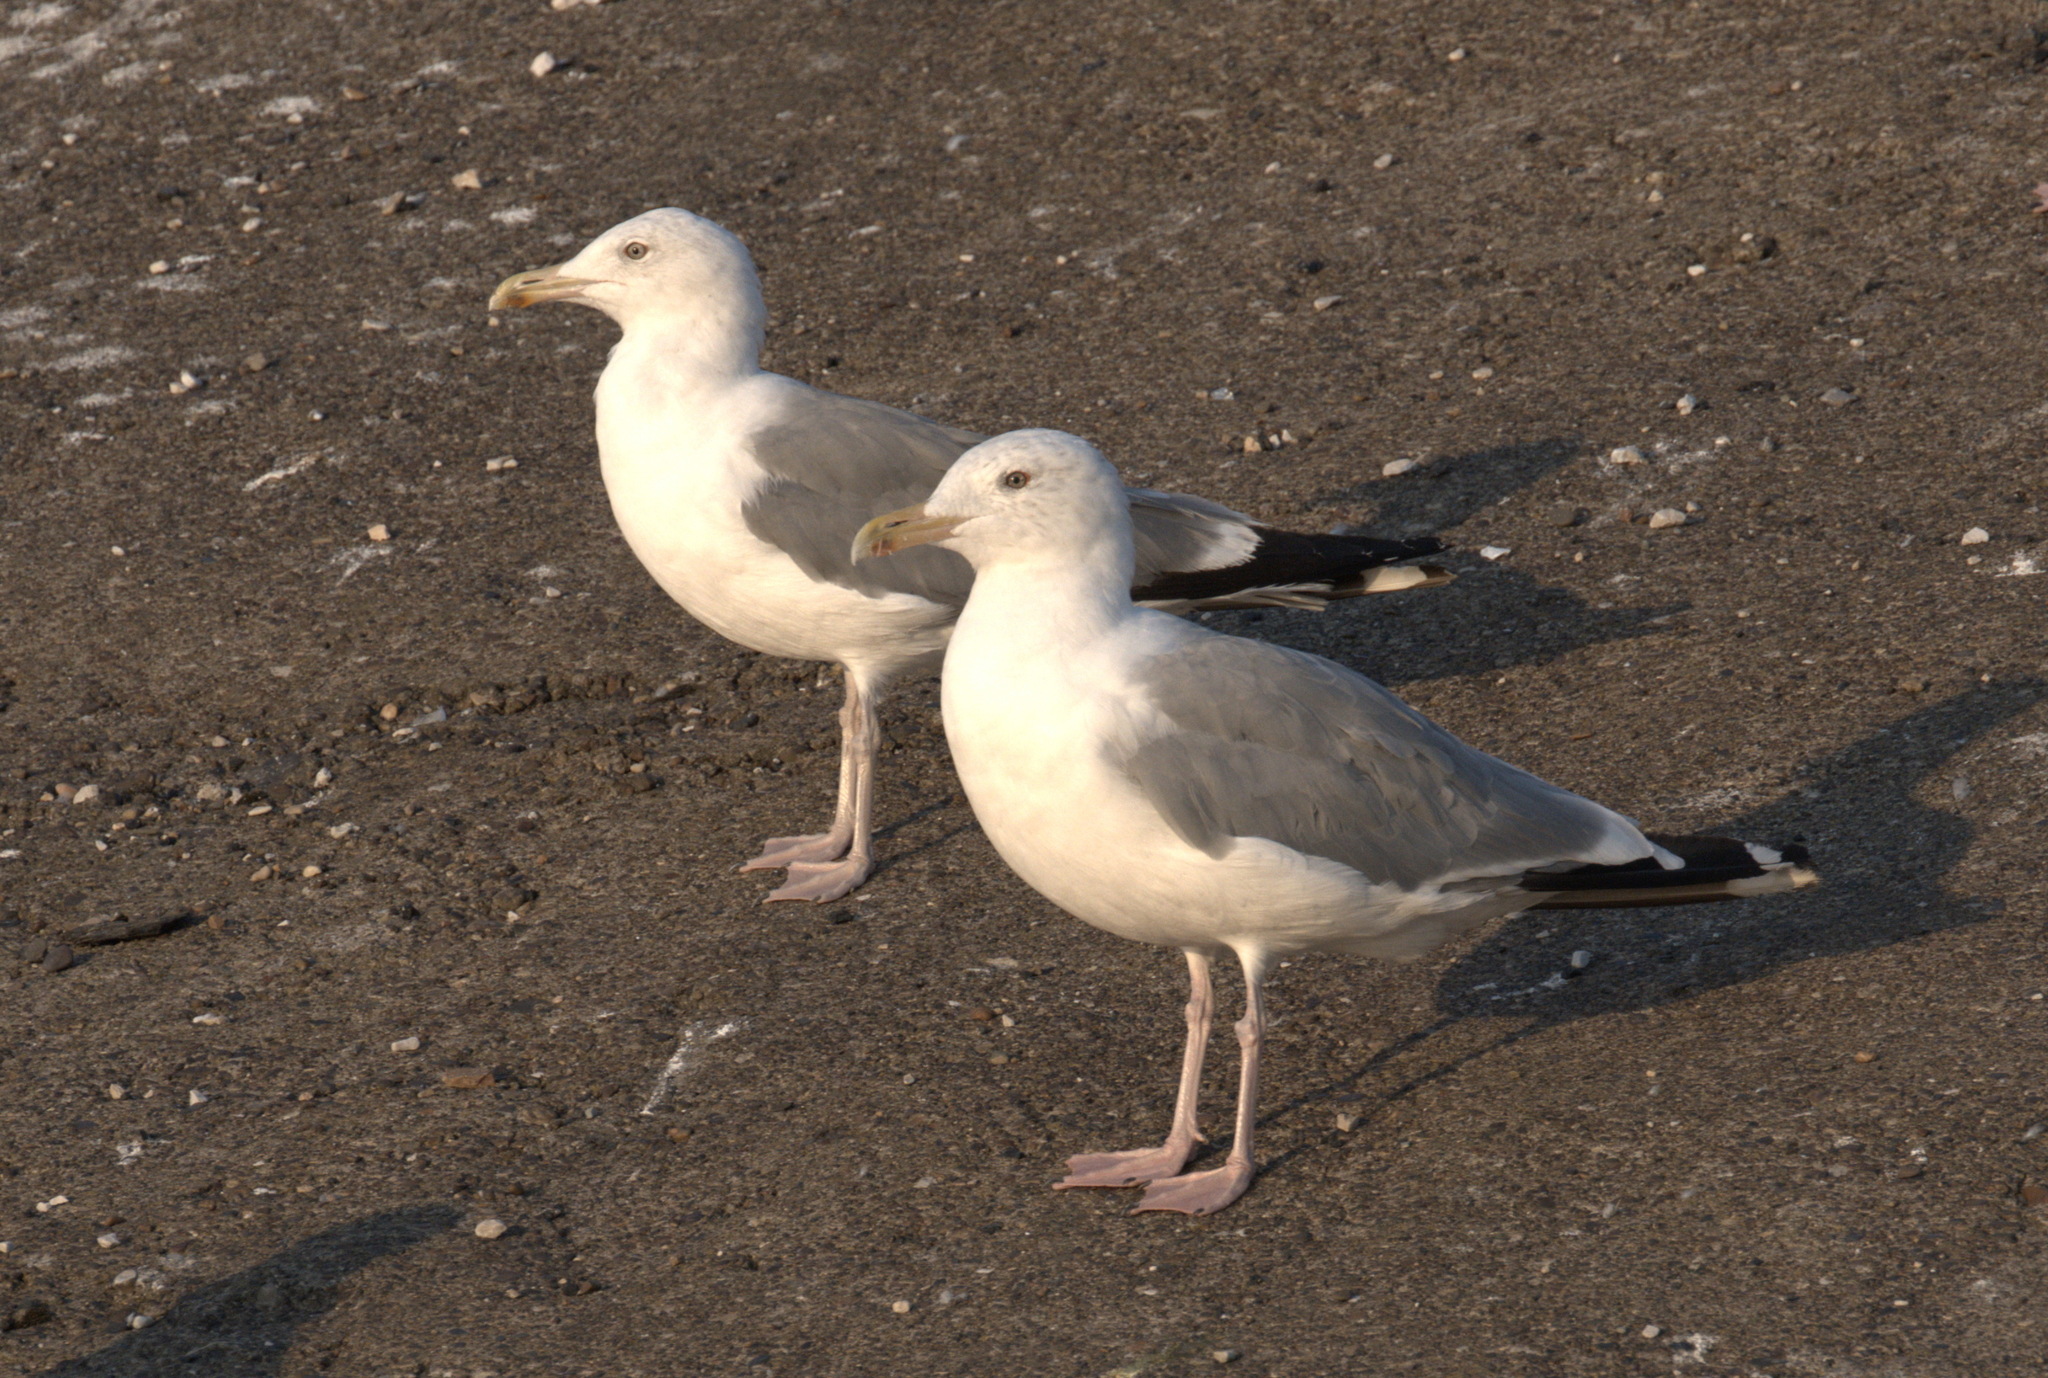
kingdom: Animalia
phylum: Chordata
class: Aves
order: Charadriiformes
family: Laridae
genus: Larus
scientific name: Larus argentatus
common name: Herring gull
